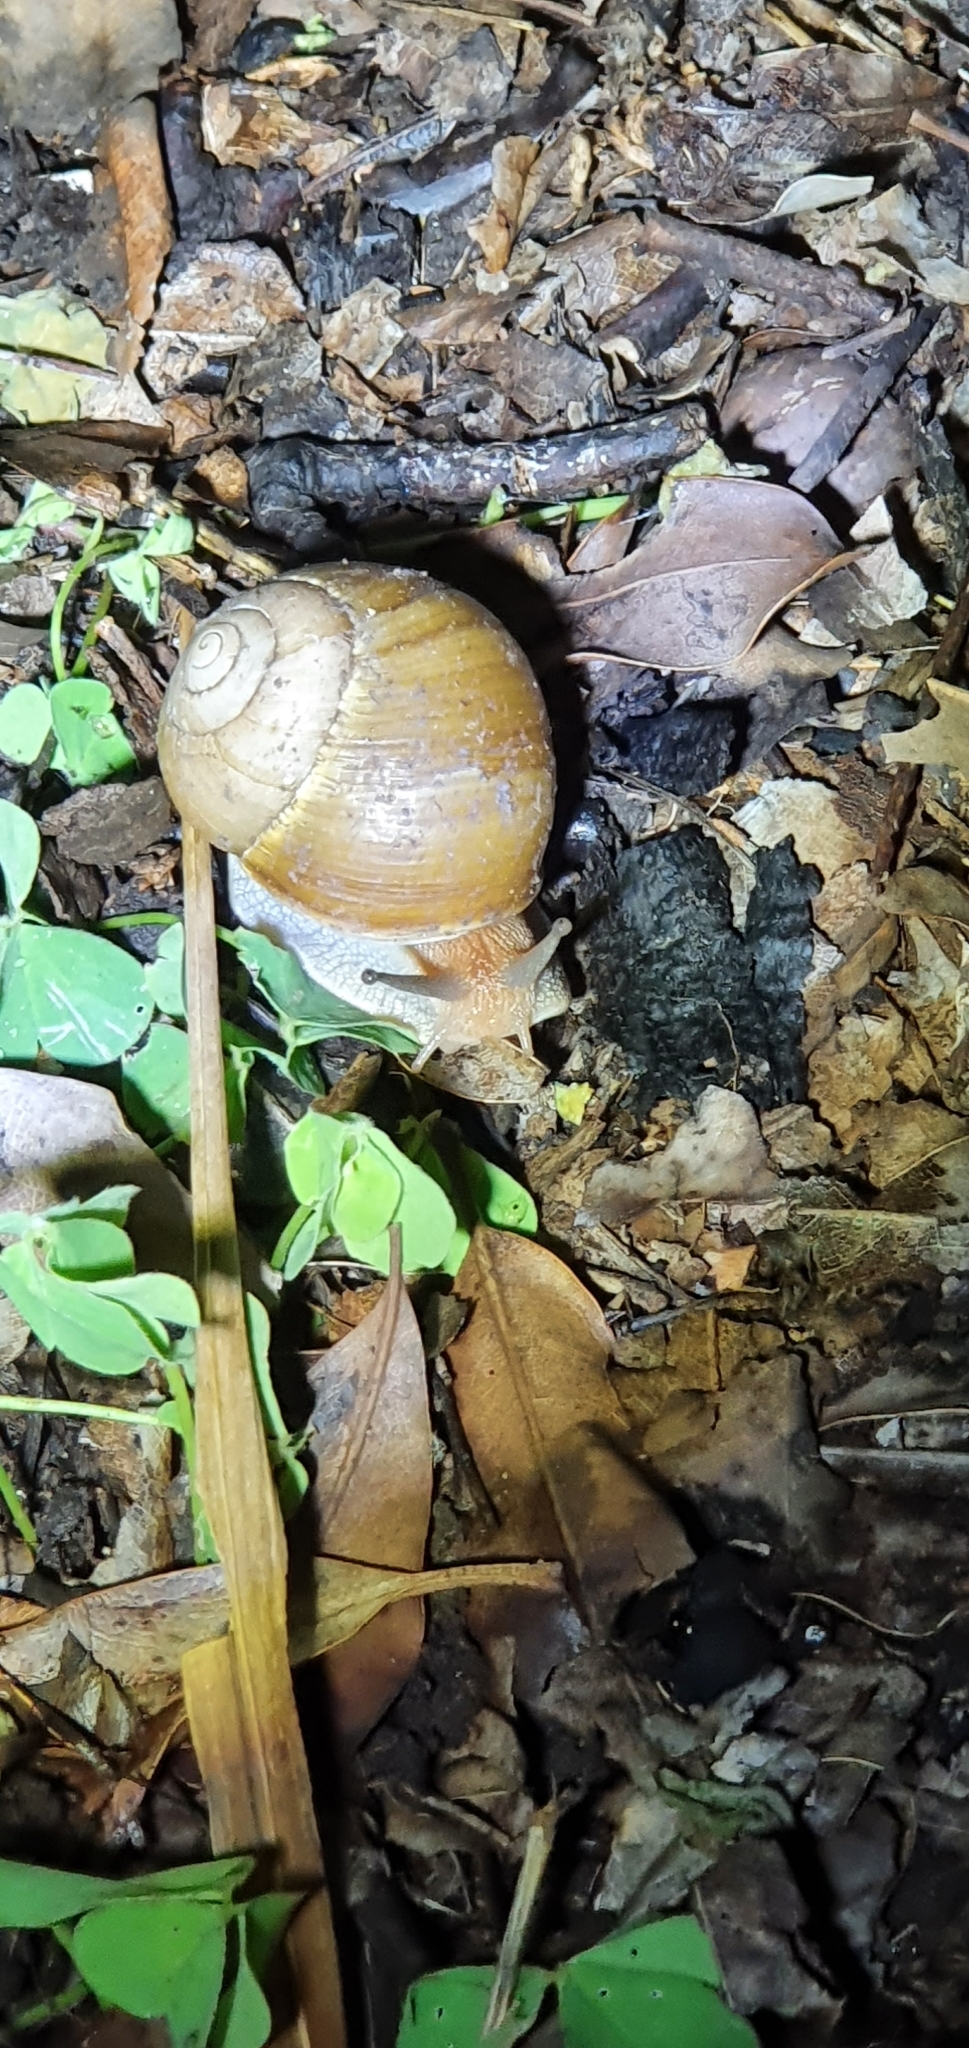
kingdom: Animalia
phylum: Mollusca
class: Gastropoda
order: Stylommatophora
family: Camaenidae
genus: Xanthomelon
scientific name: Xanthomelon pachystylum
